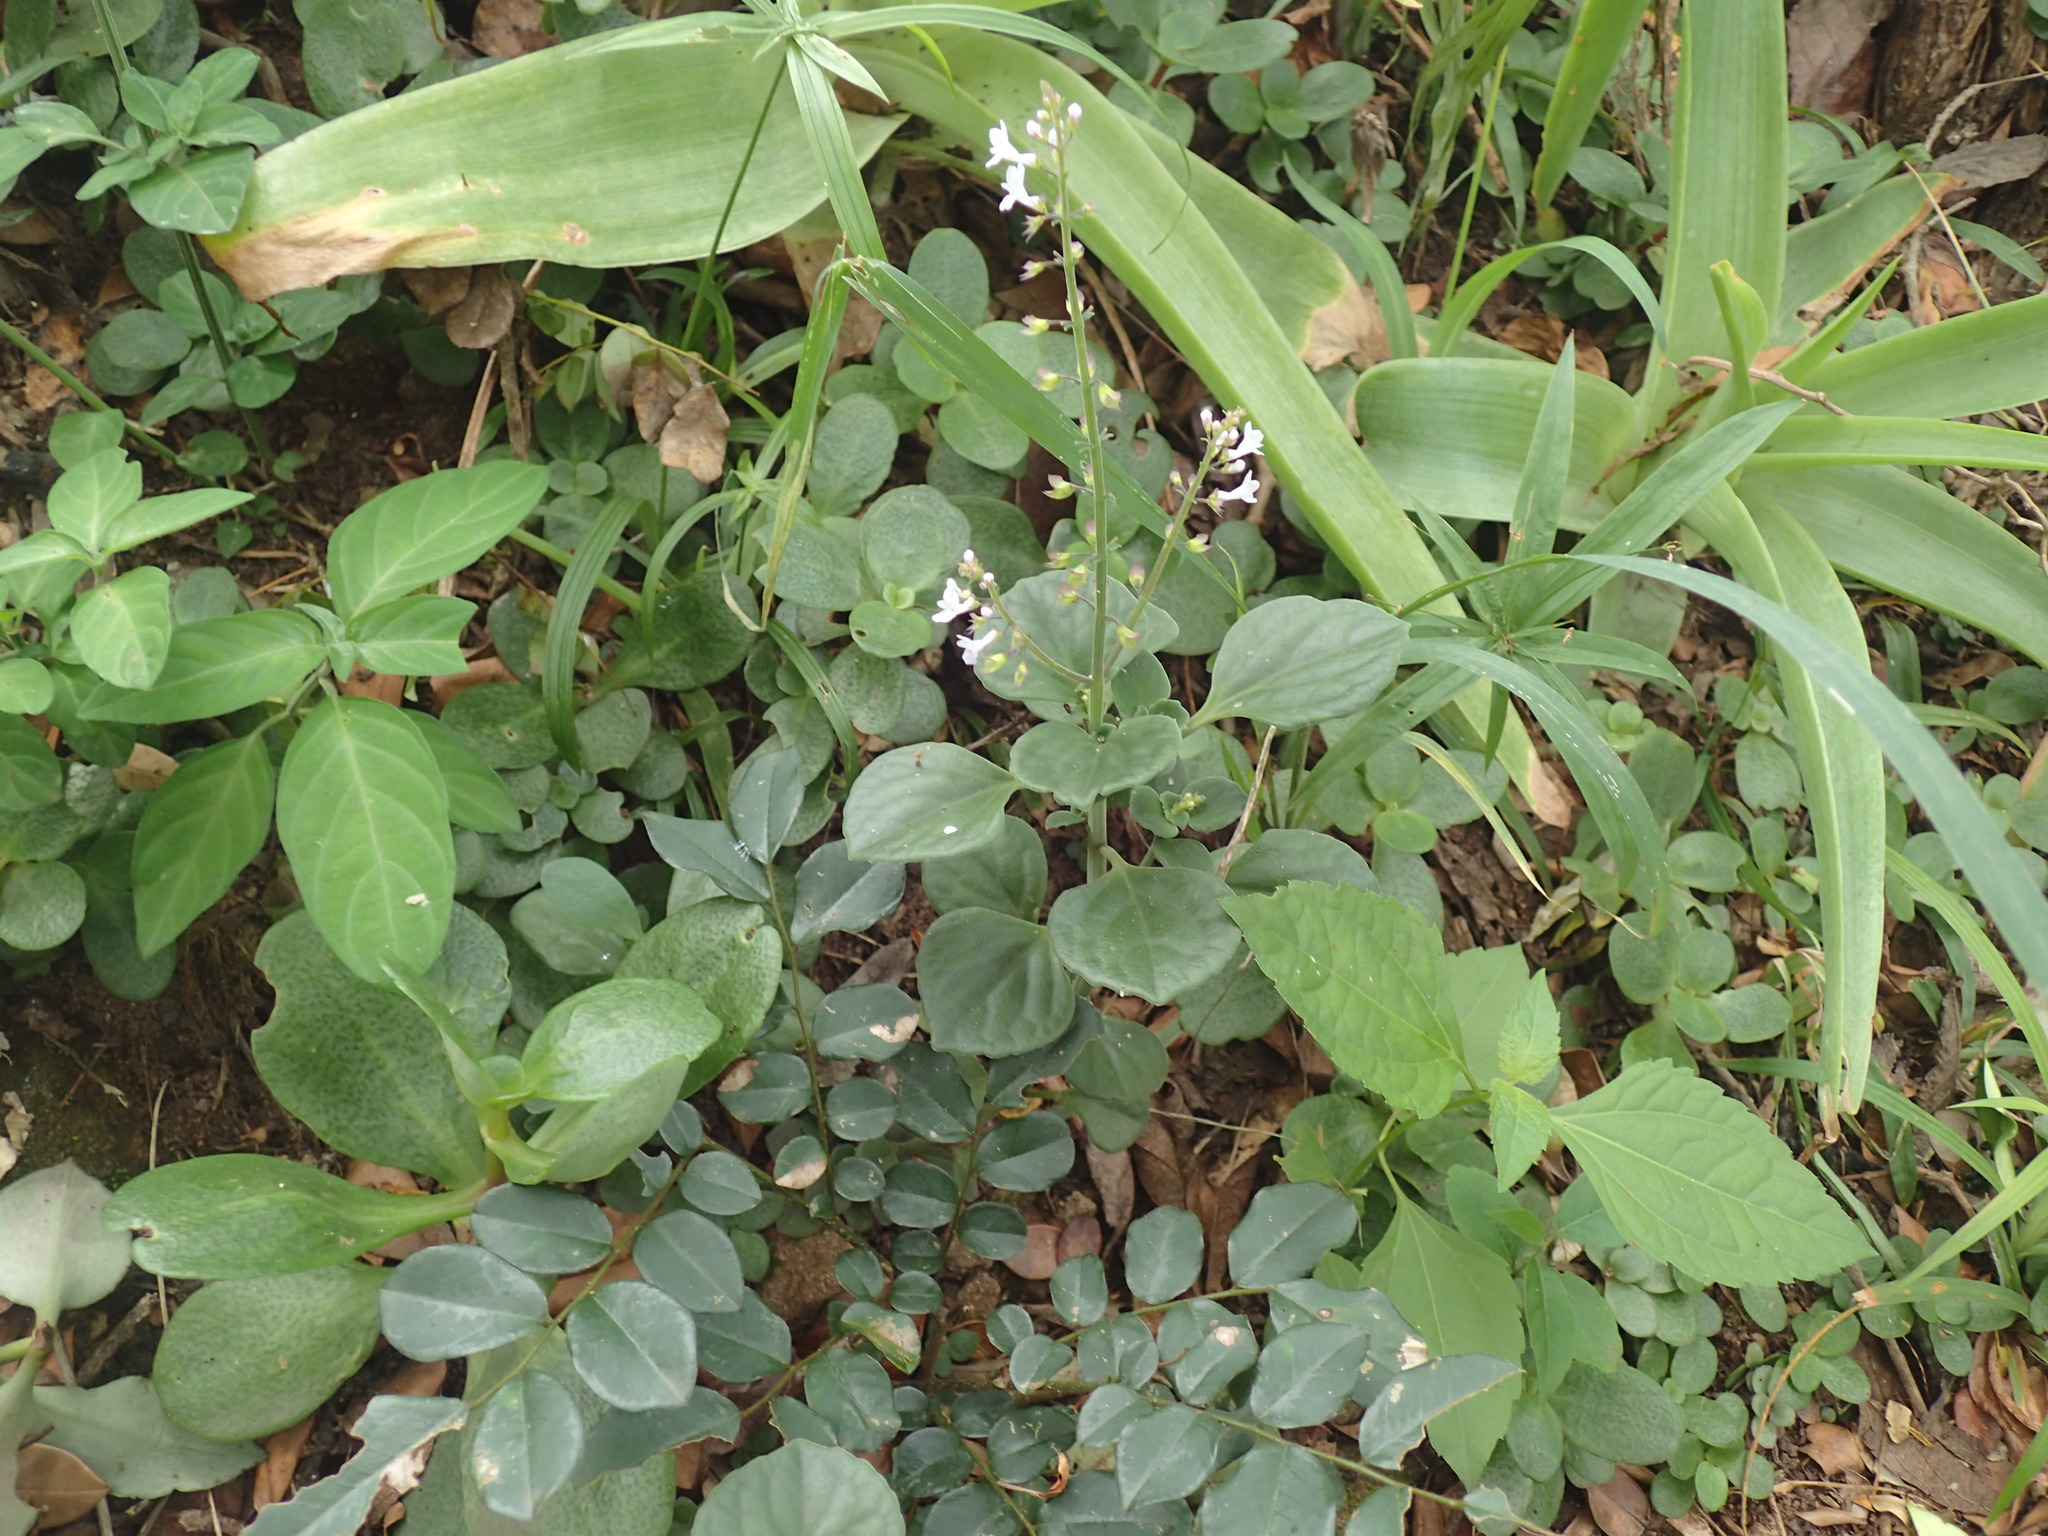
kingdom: Plantae
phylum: Tracheophyta
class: Magnoliopsida
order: Lamiales
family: Lamiaceae
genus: Plectranthus
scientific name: Plectranthus purpuratus
